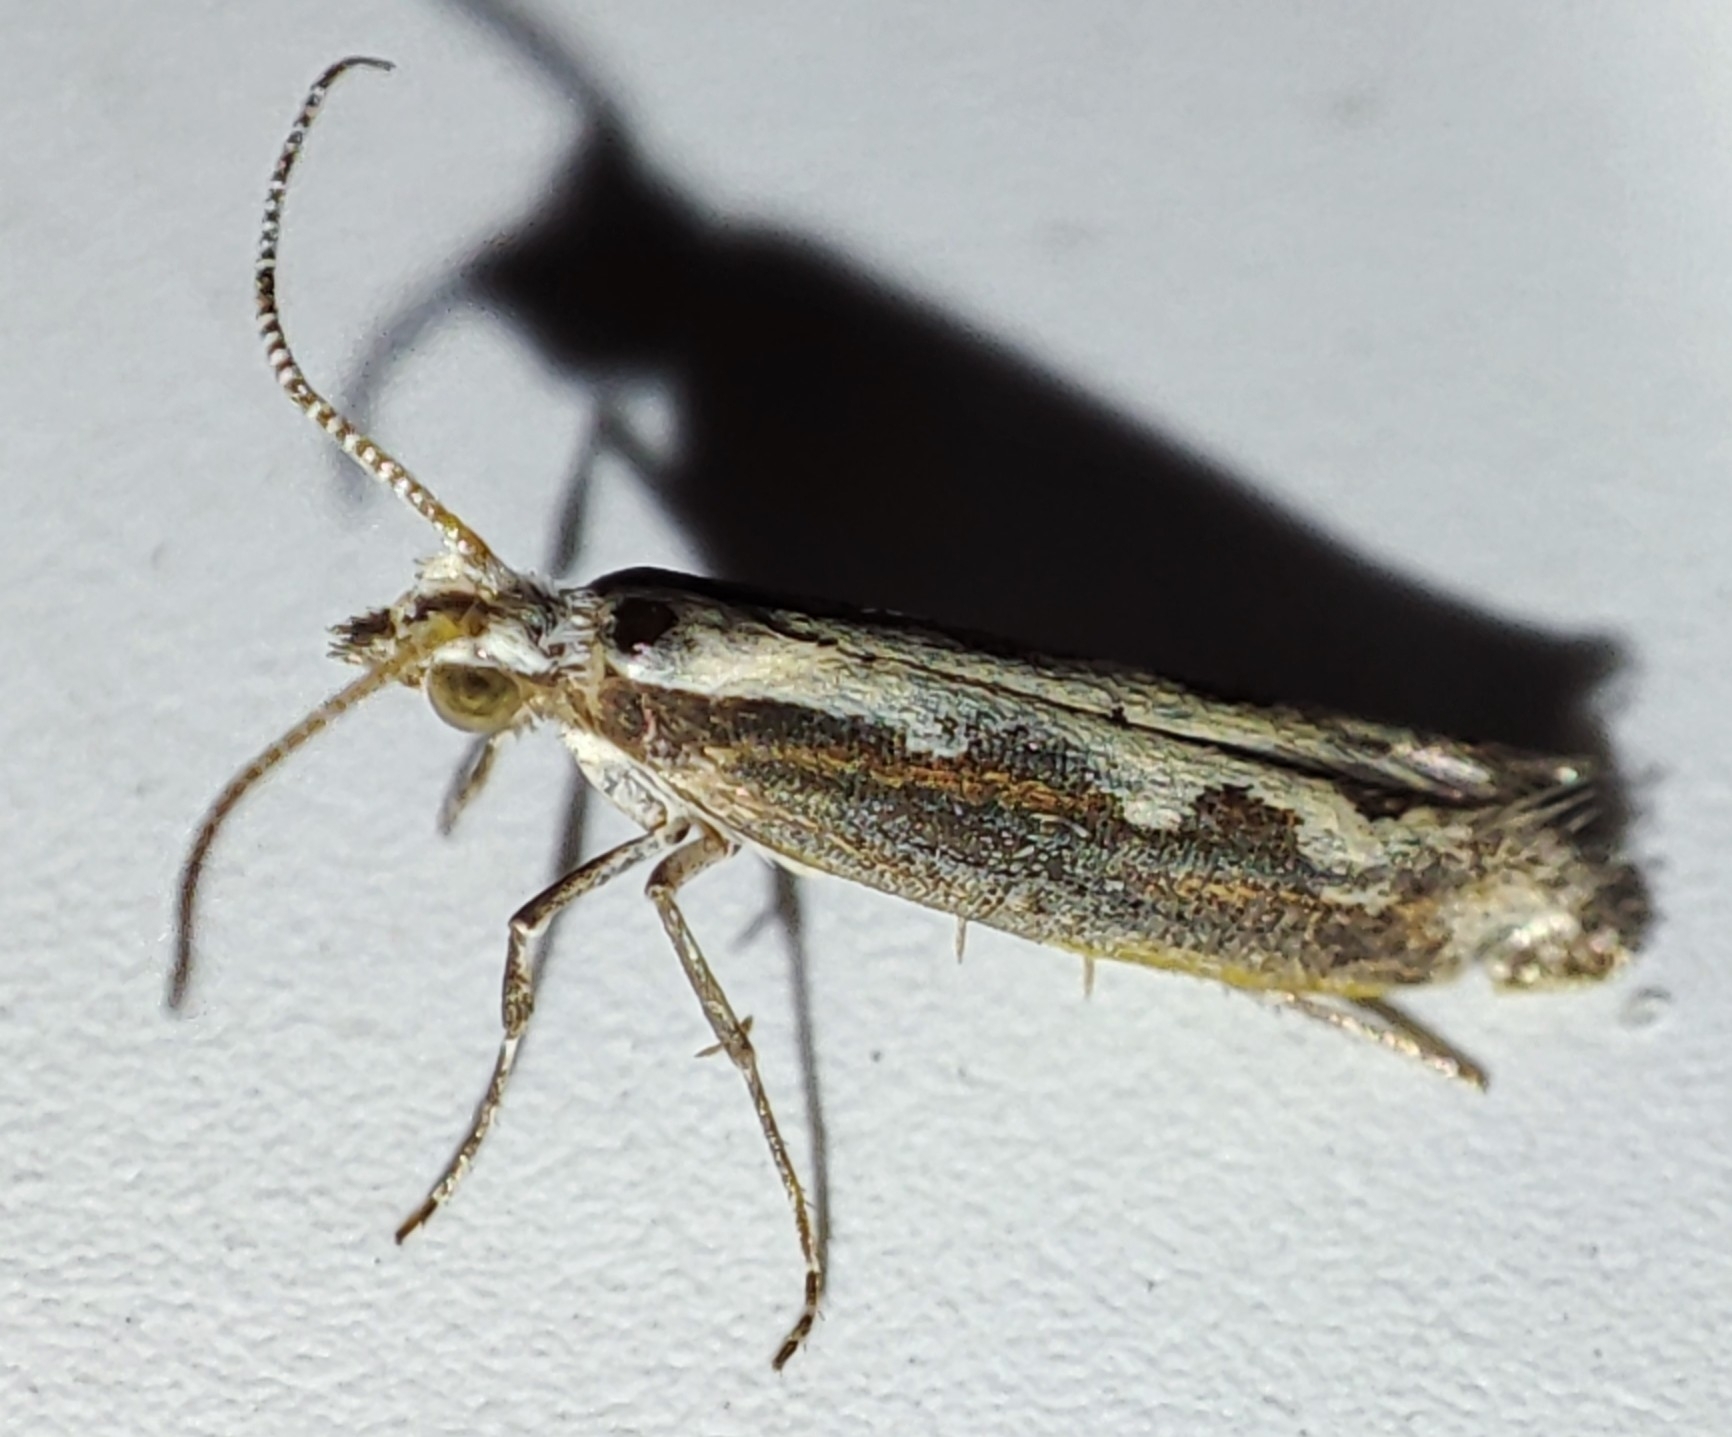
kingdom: Animalia
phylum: Arthropoda
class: Insecta
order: Lepidoptera
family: Plutellidae
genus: Plutella
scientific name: Plutella xylostella
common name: Diamond-back moth
